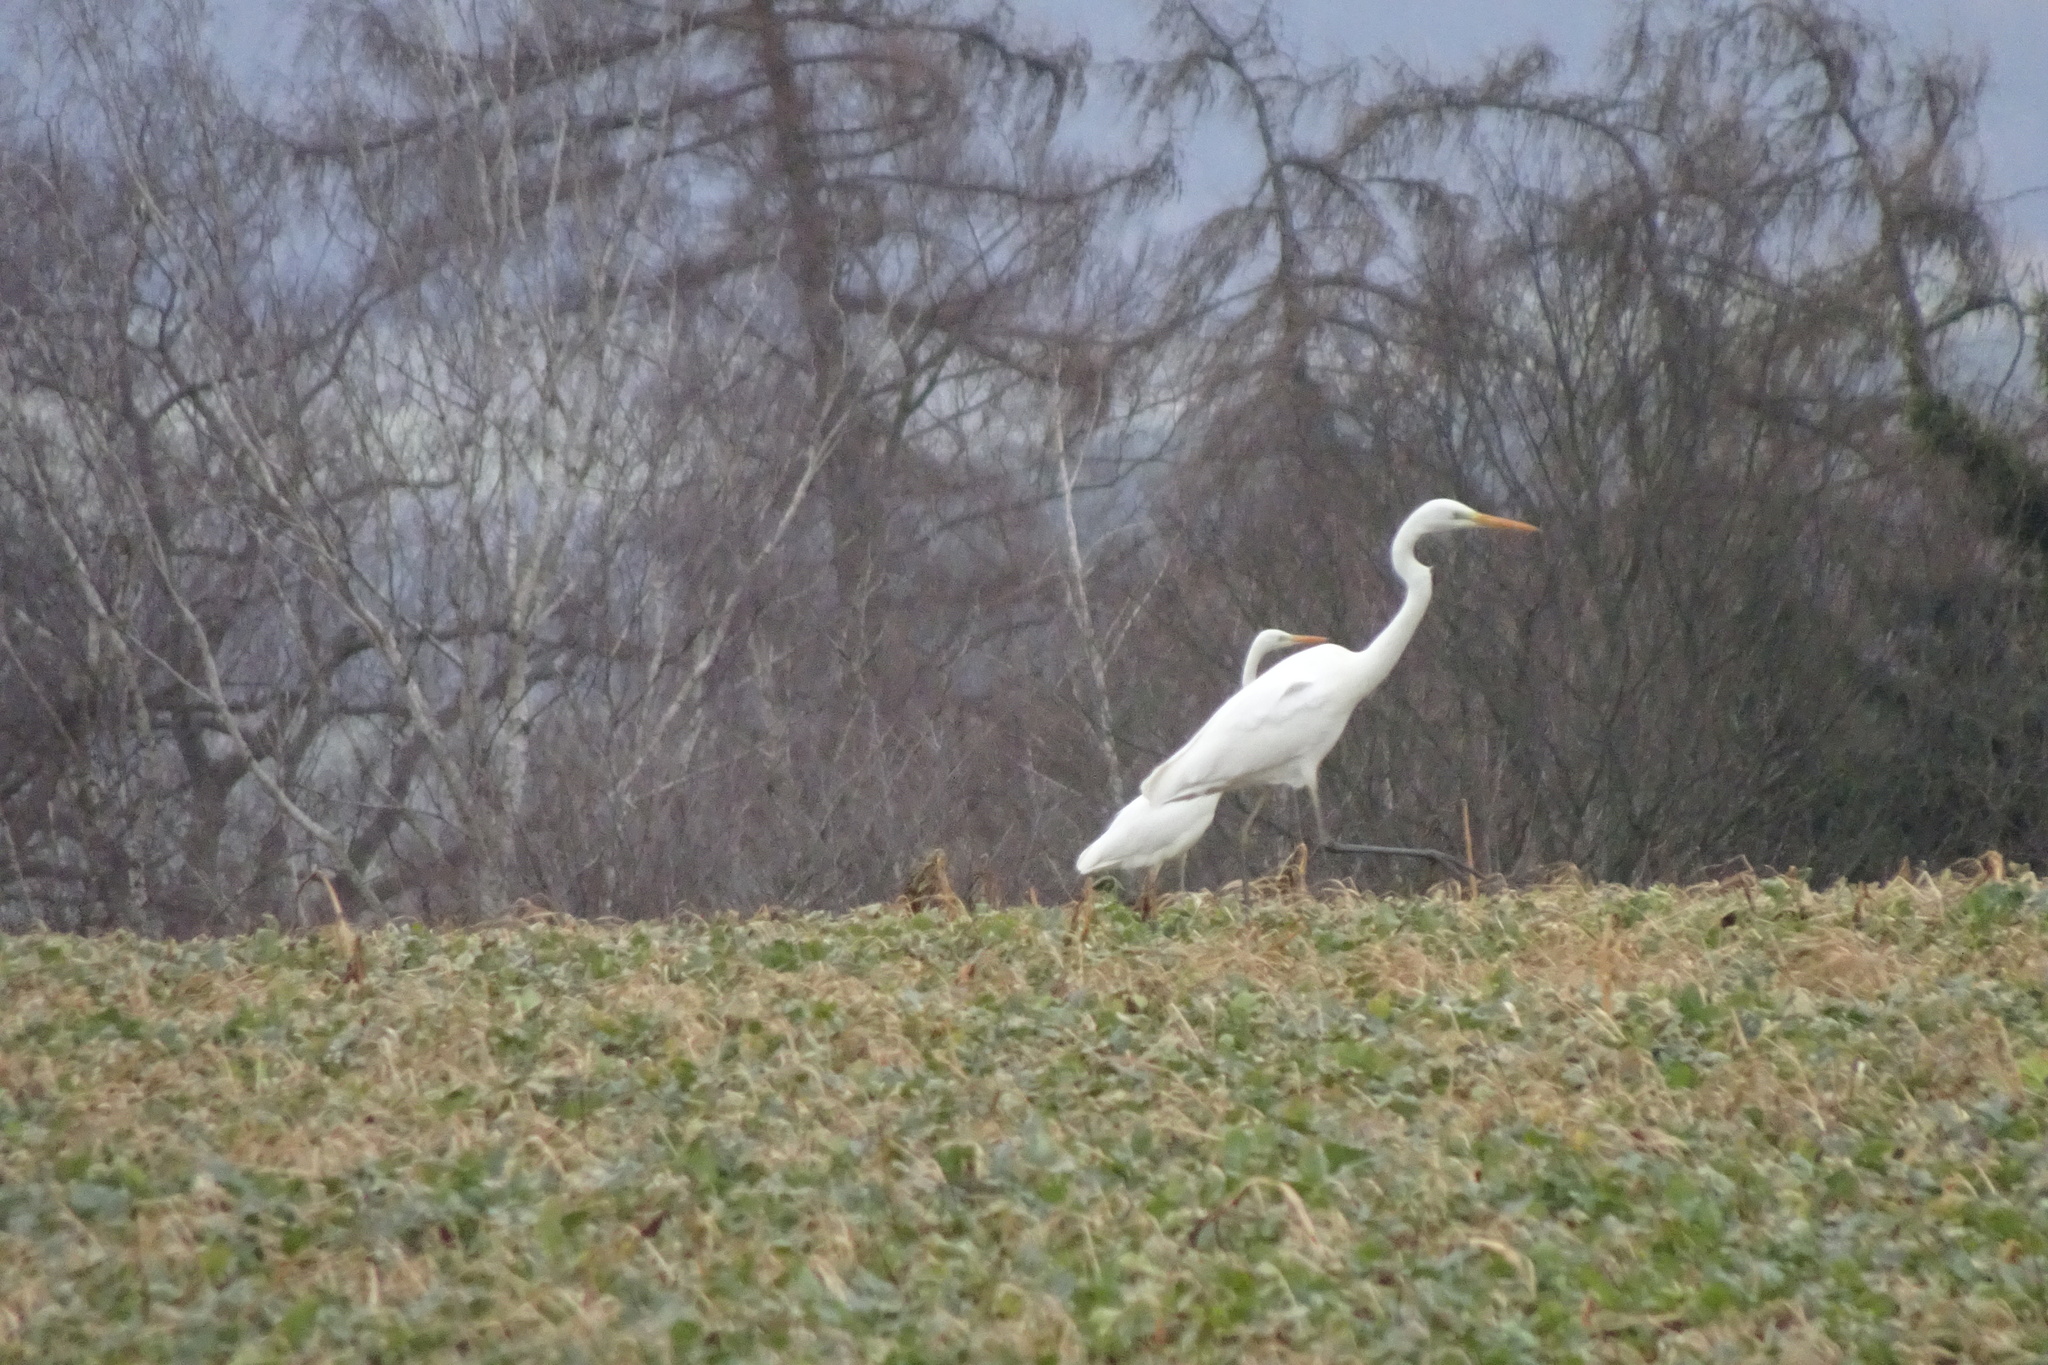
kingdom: Animalia
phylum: Chordata
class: Aves
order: Pelecaniformes
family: Ardeidae
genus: Ardea
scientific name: Ardea alba
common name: Great egret
